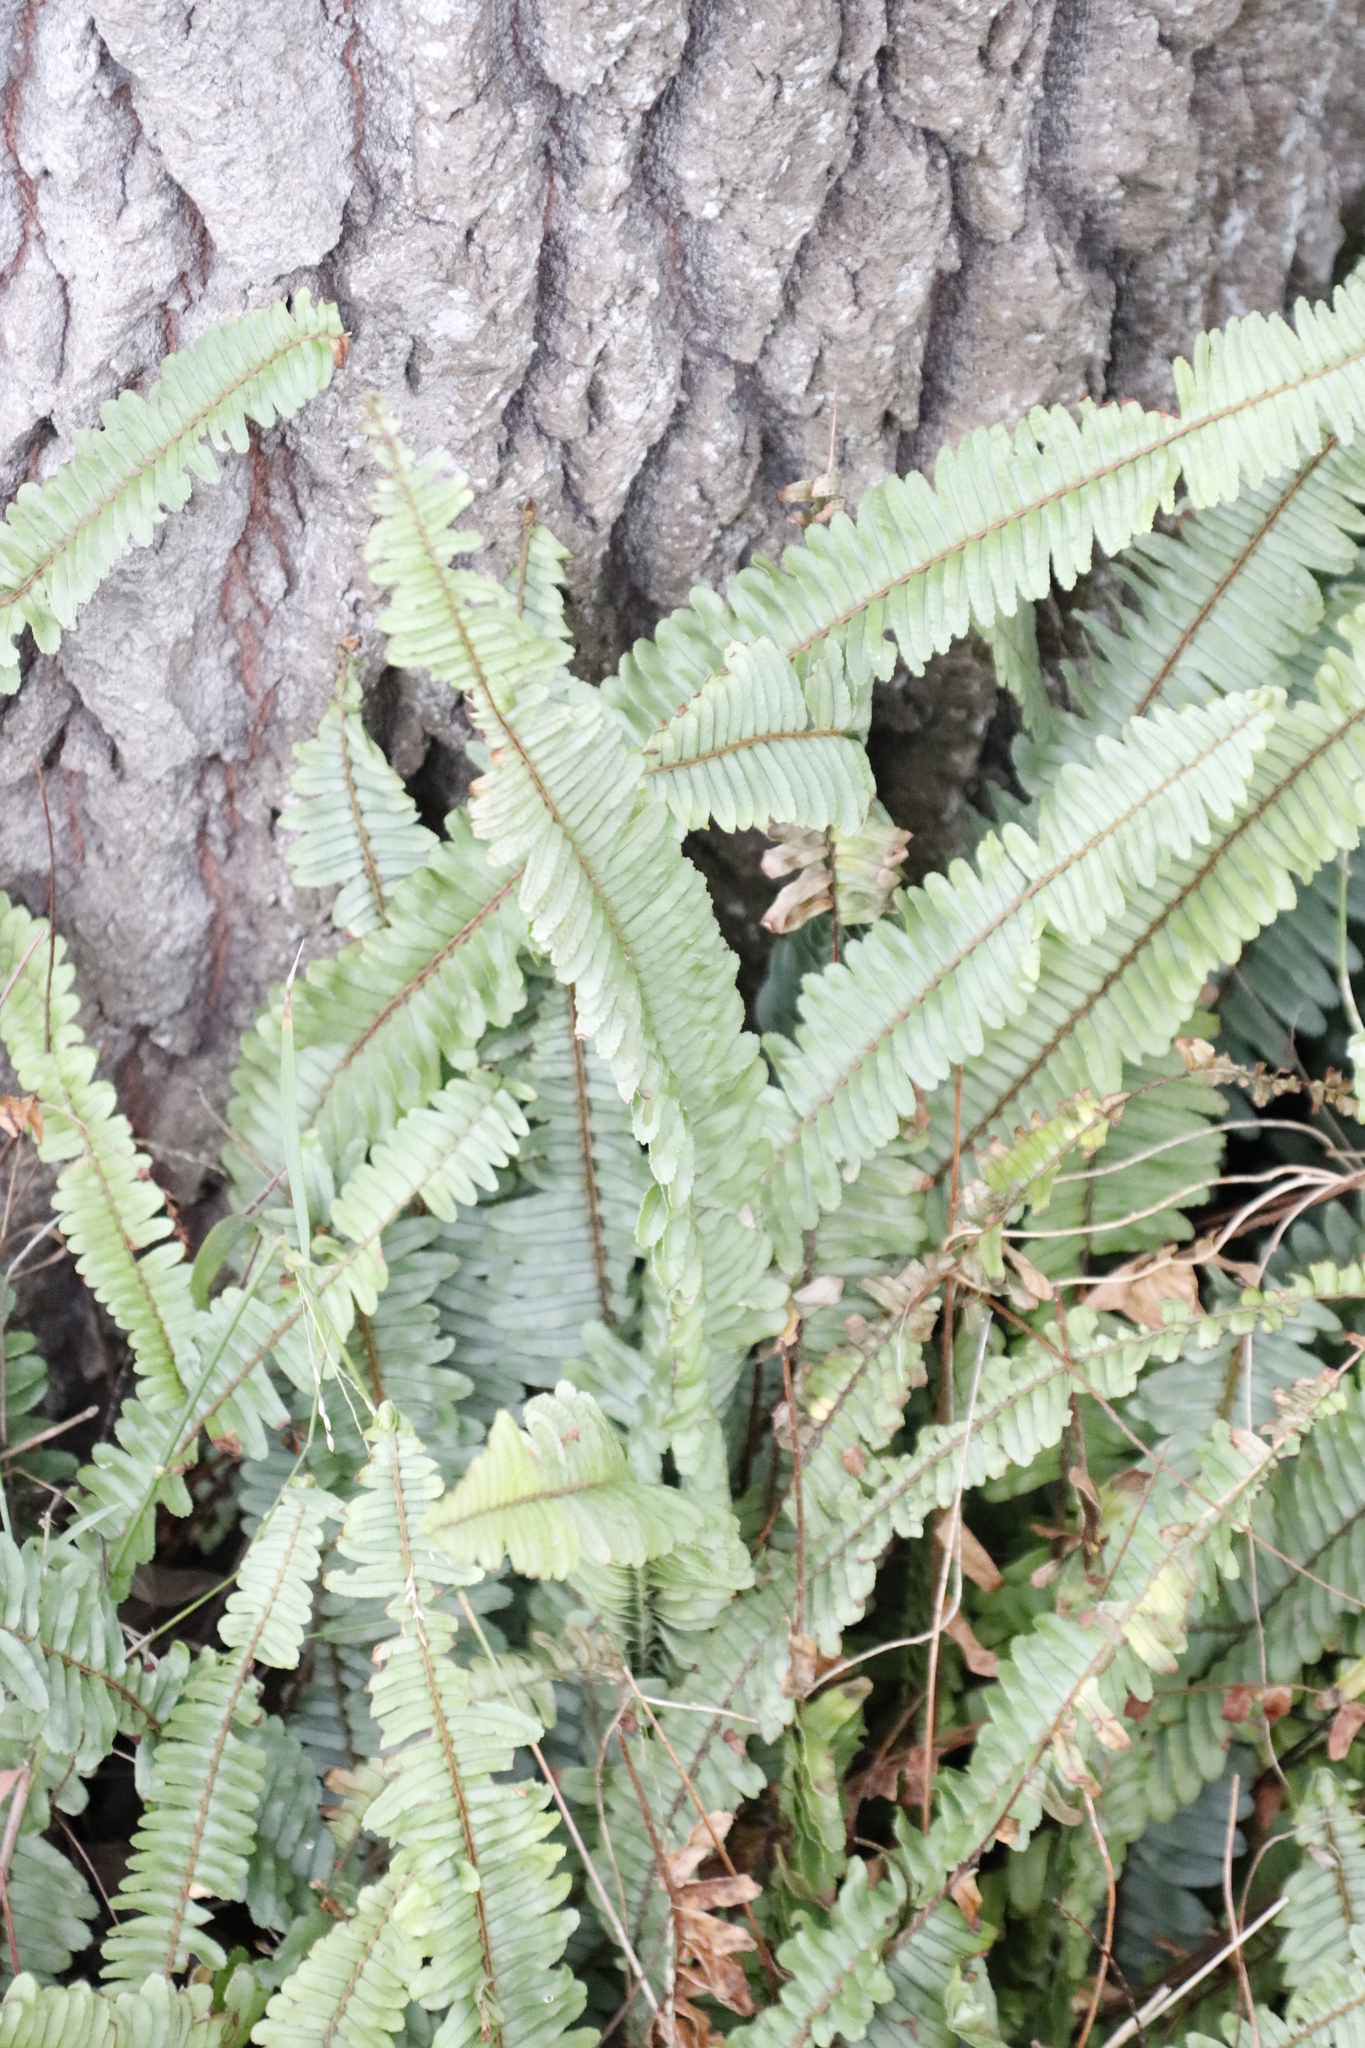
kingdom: Plantae
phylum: Tracheophyta
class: Polypodiopsida
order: Polypodiales
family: Nephrolepidaceae
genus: Nephrolepis
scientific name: Nephrolepis cordifolia
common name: Narrow swordfern
